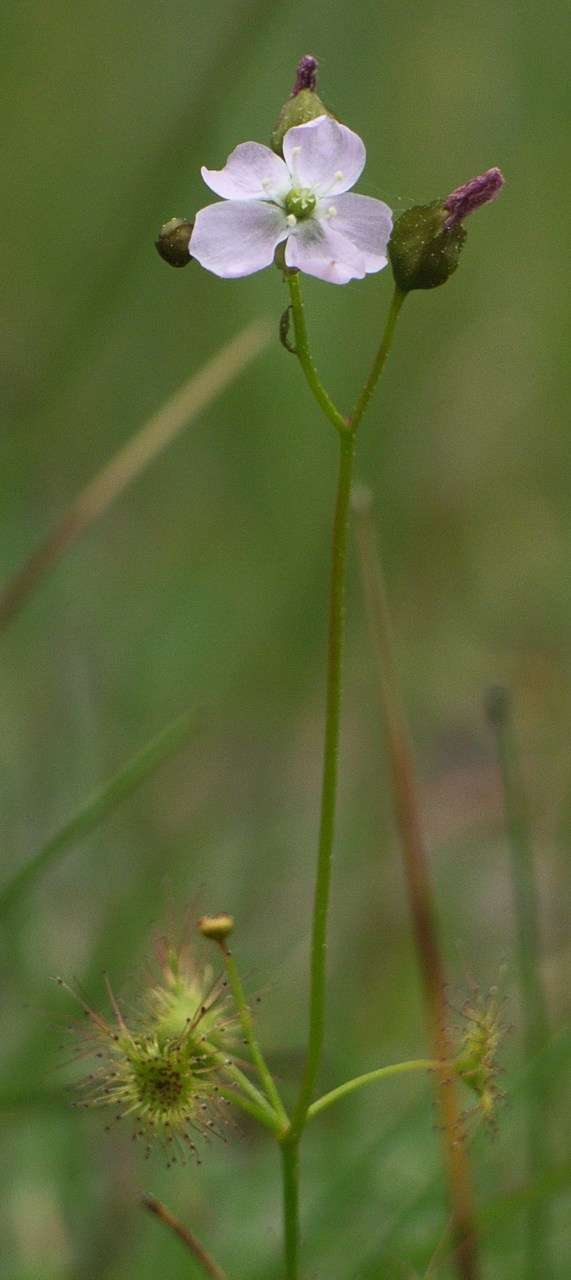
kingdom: Plantae
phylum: Tracheophyta
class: Magnoliopsida
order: Caryophyllales
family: Droseraceae
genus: Drosera
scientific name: Drosera peltata
